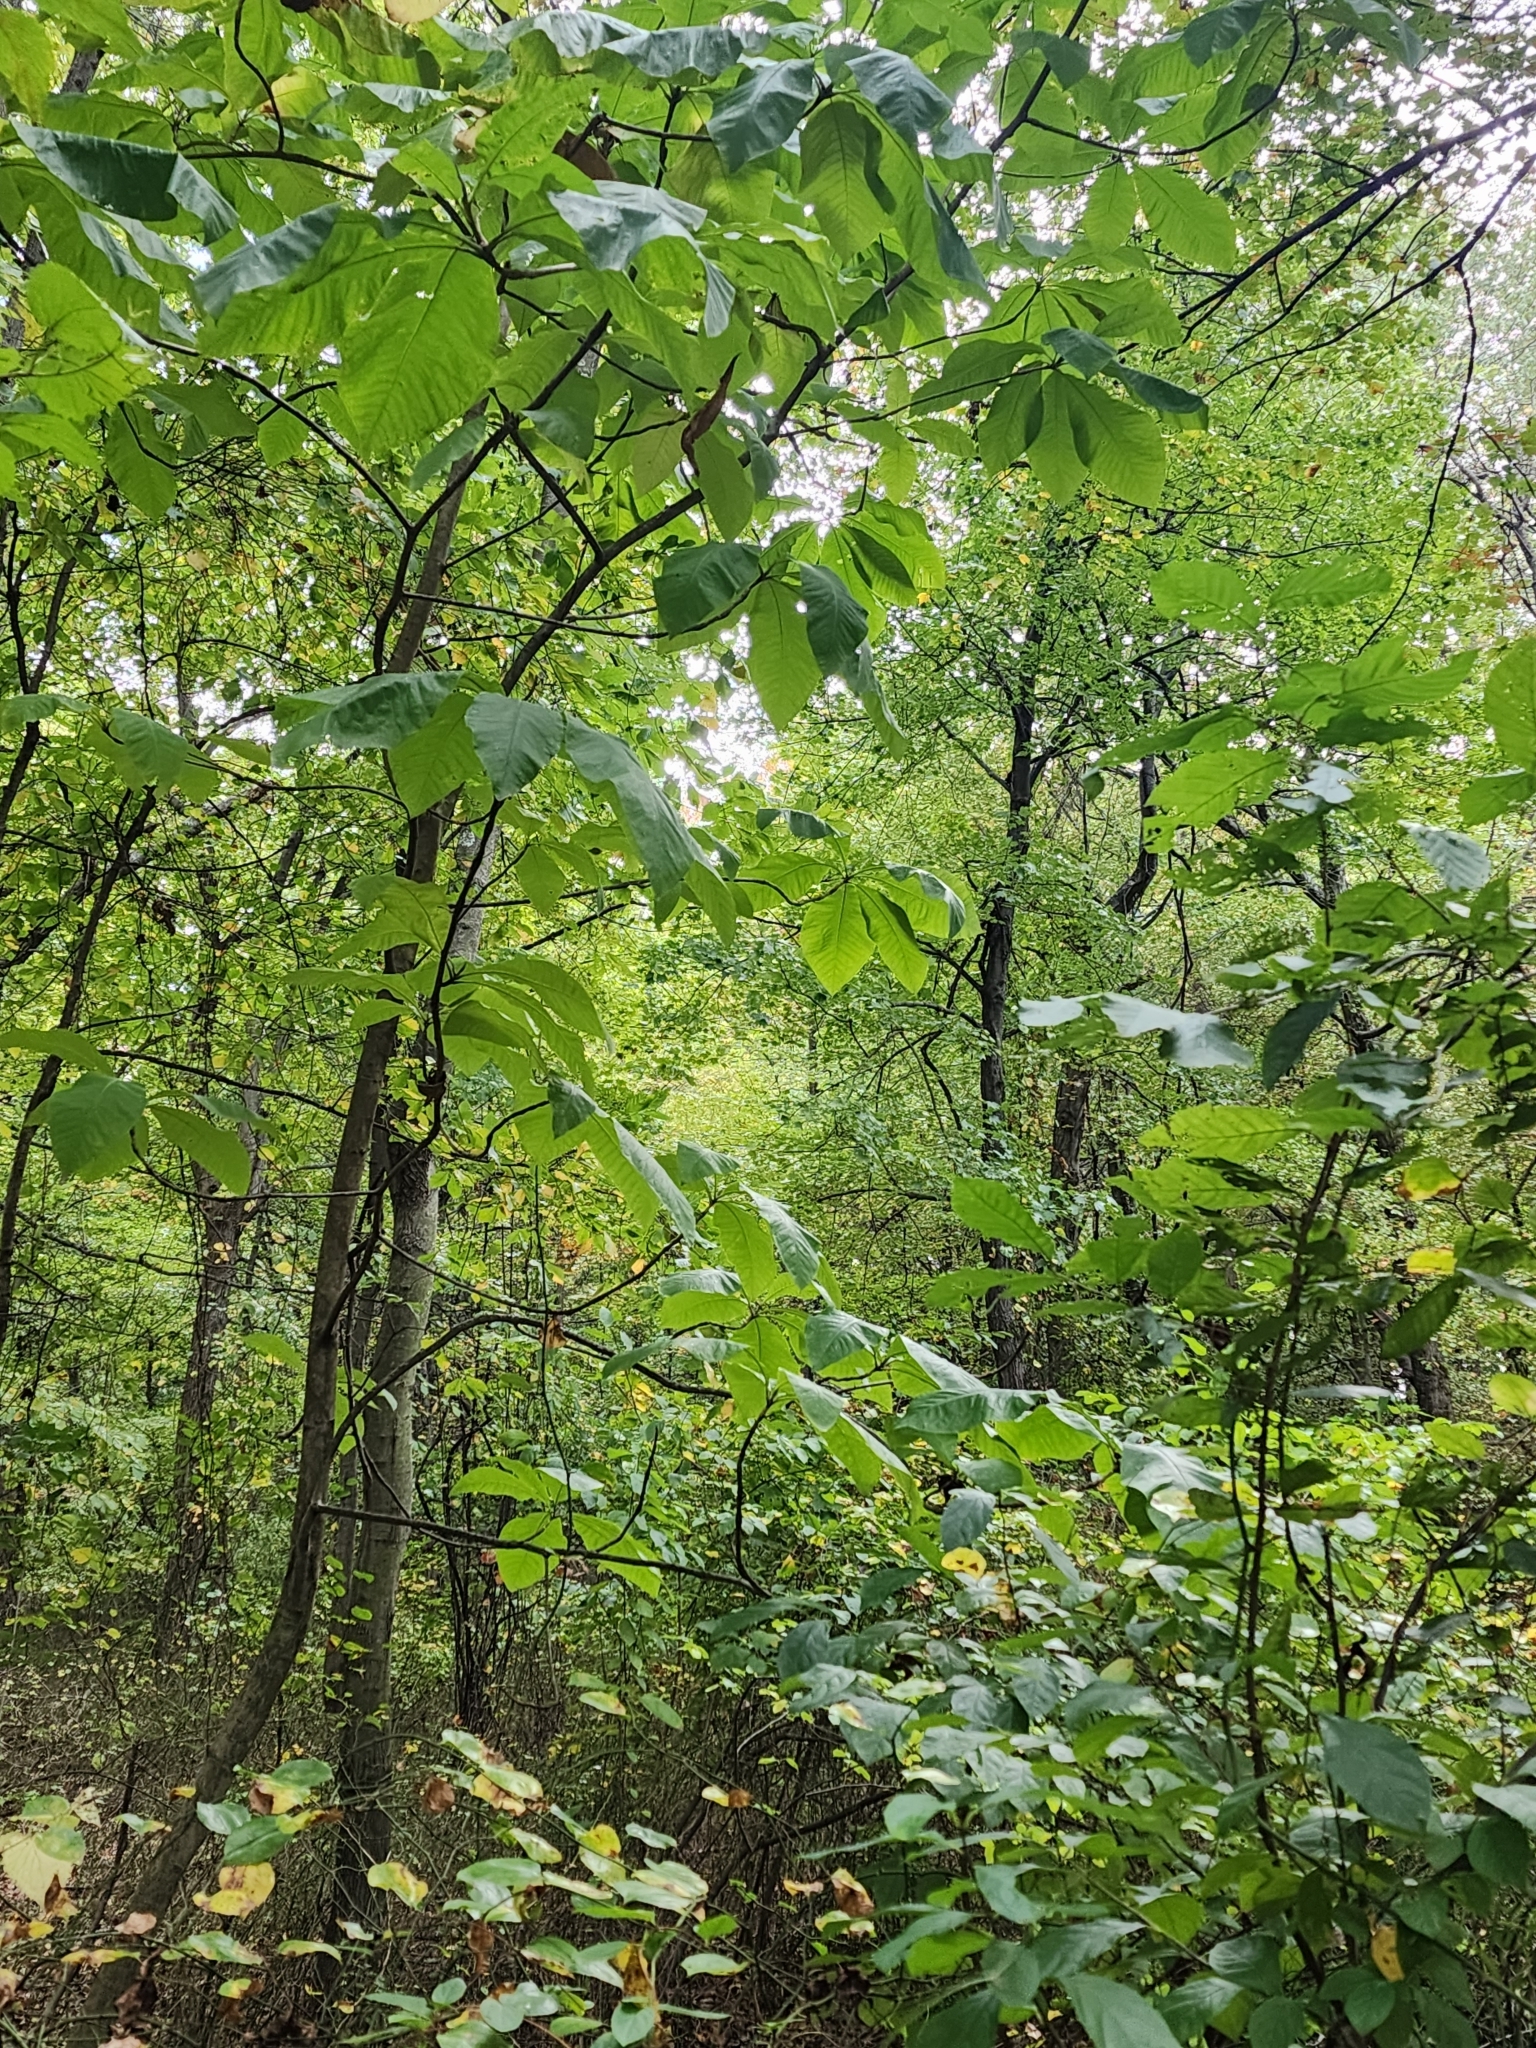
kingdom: Plantae
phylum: Tracheophyta
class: Magnoliopsida
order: Magnoliales
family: Magnoliaceae
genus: Magnolia
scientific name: Magnolia tripetala
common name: Umbrella magnolia
